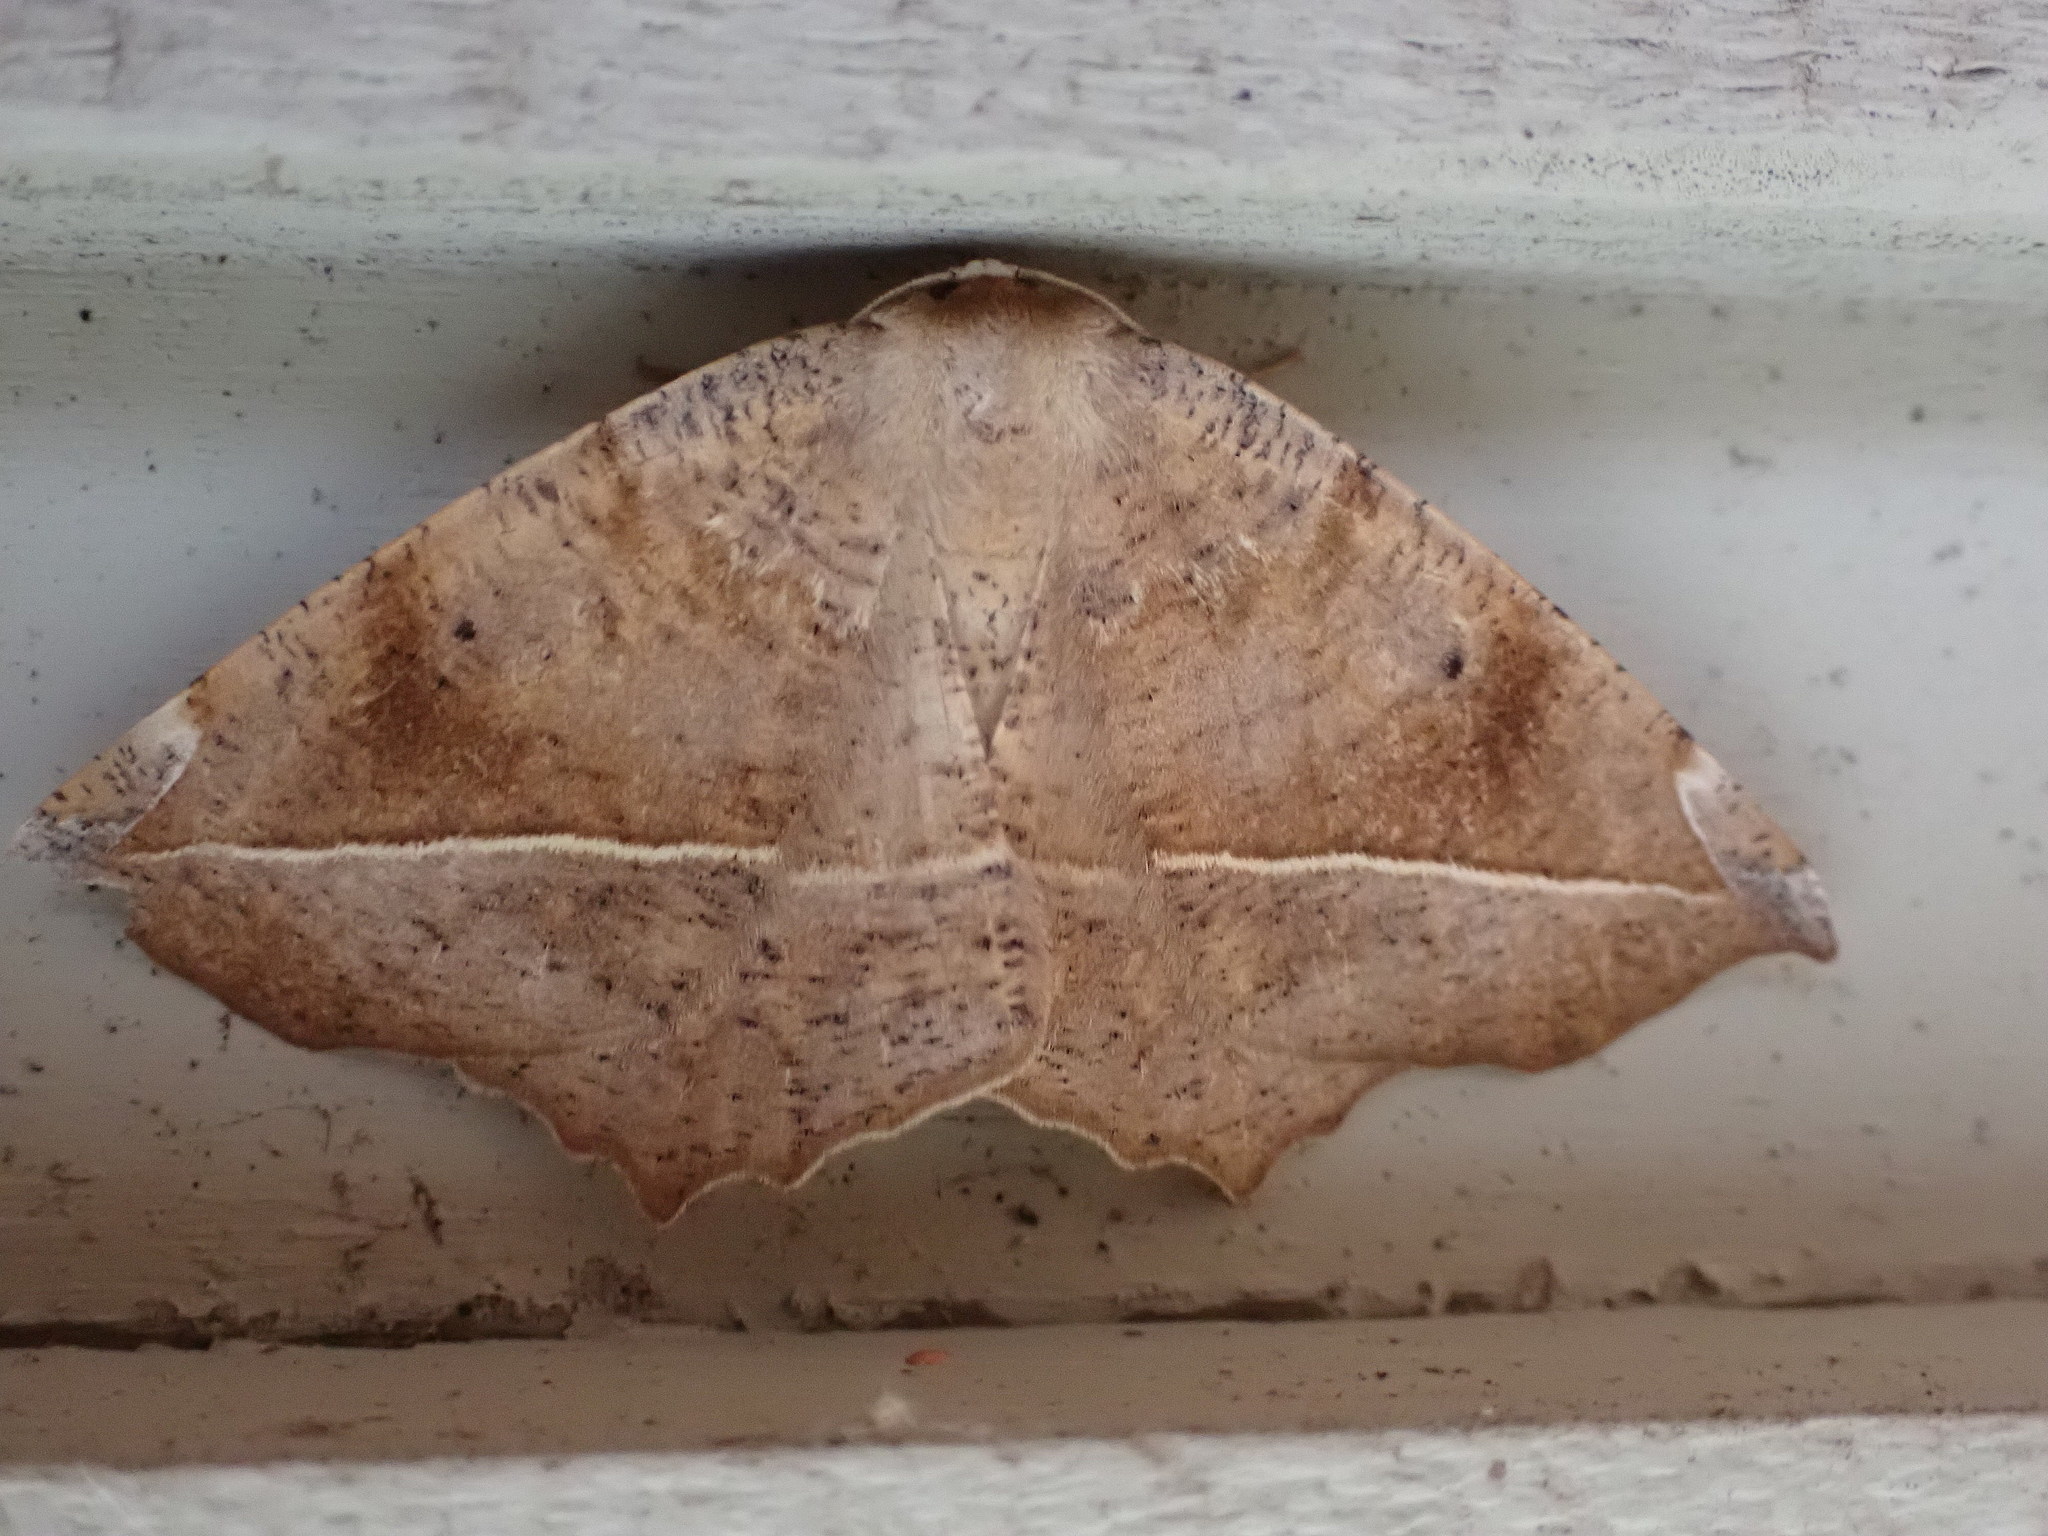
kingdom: Animalia
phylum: Arthropoda
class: Insecta
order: Lepidoptera
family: Geometridae
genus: Eutrapela
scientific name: Eutrapela clemataria
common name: Curved-toothed geometer
